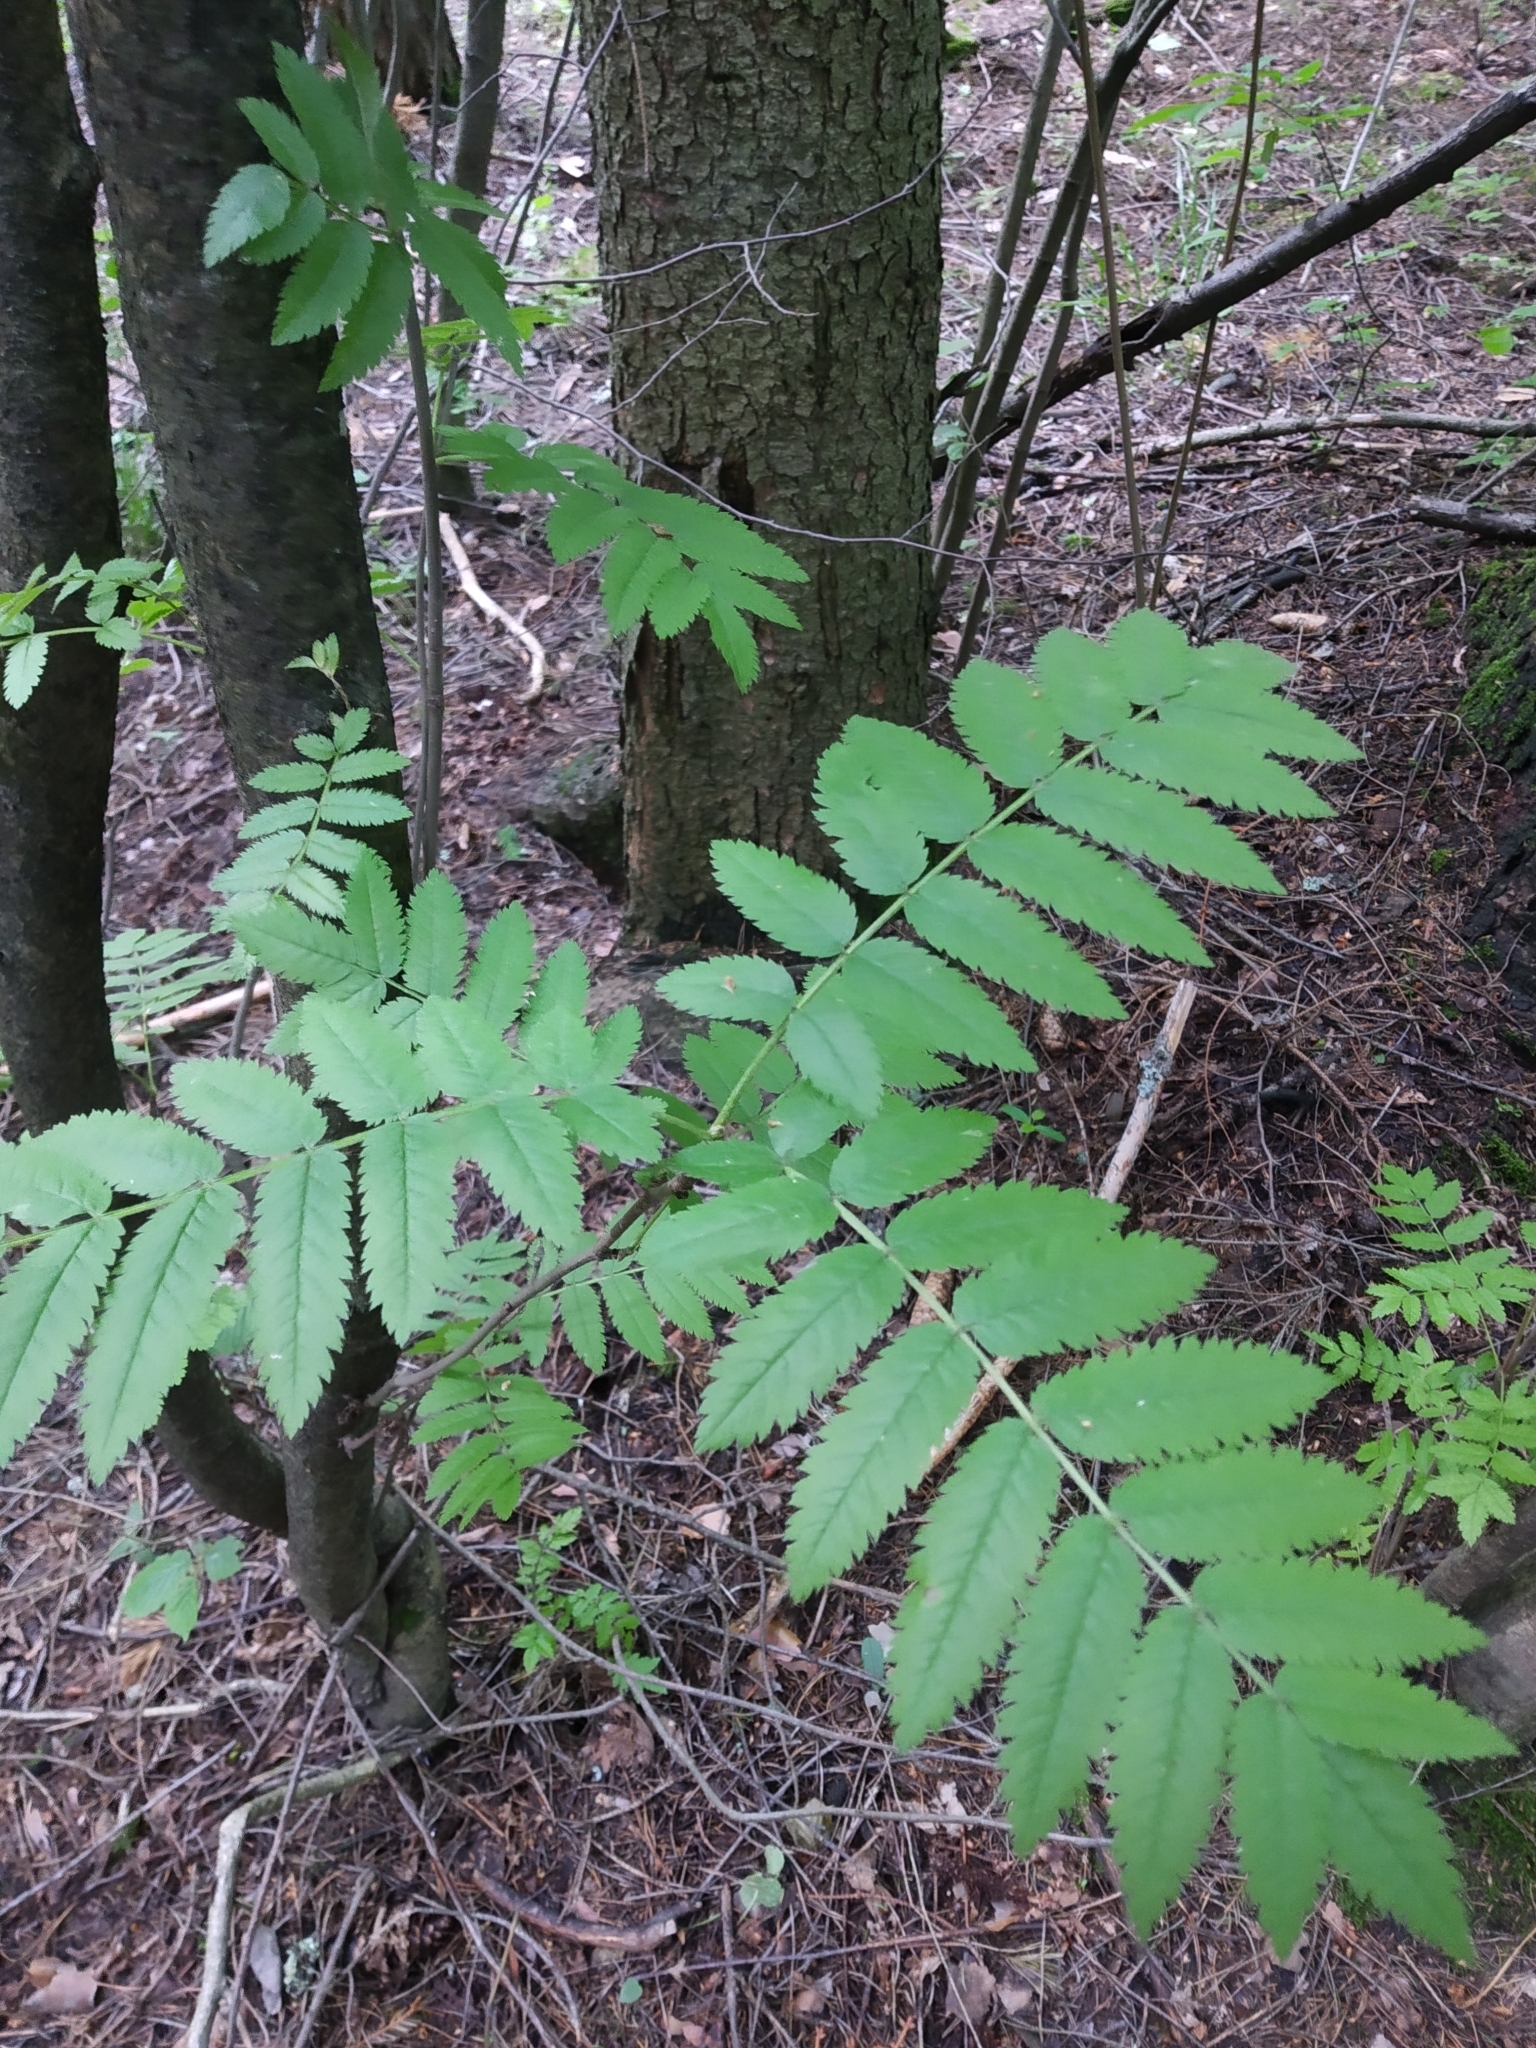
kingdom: Plantae
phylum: Tracheophyta
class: Magnoliopsida
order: Rosales
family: Rosaceae
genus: Sorbus
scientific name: Sorbus aucuparia
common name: Rowan
